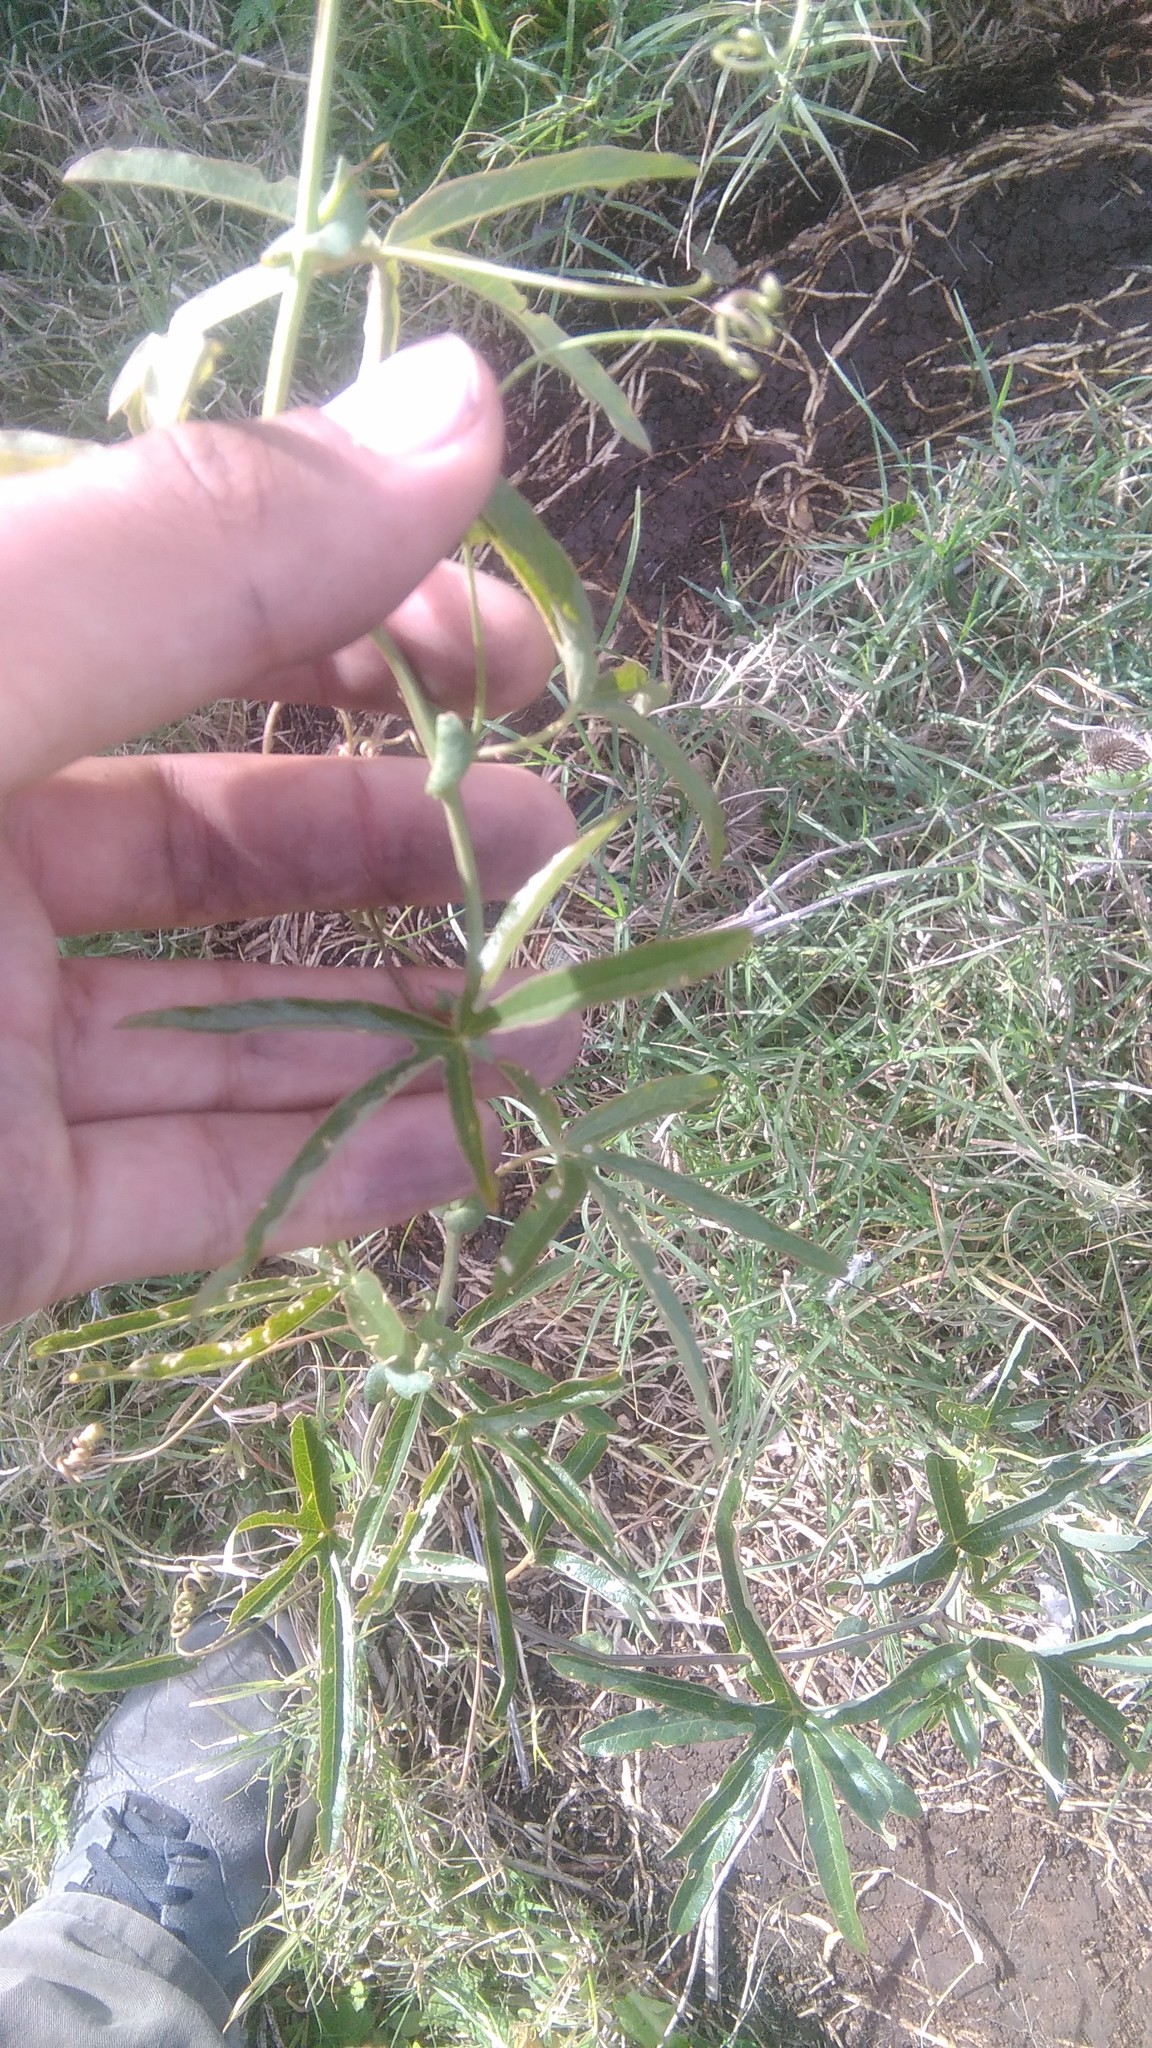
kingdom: Plantae
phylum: Tracheophyta
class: Magnoliopsida
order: Malpighiales
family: Passifloraceae
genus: Passiflora
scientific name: Passiflora caerulea
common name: Blue passionflower
